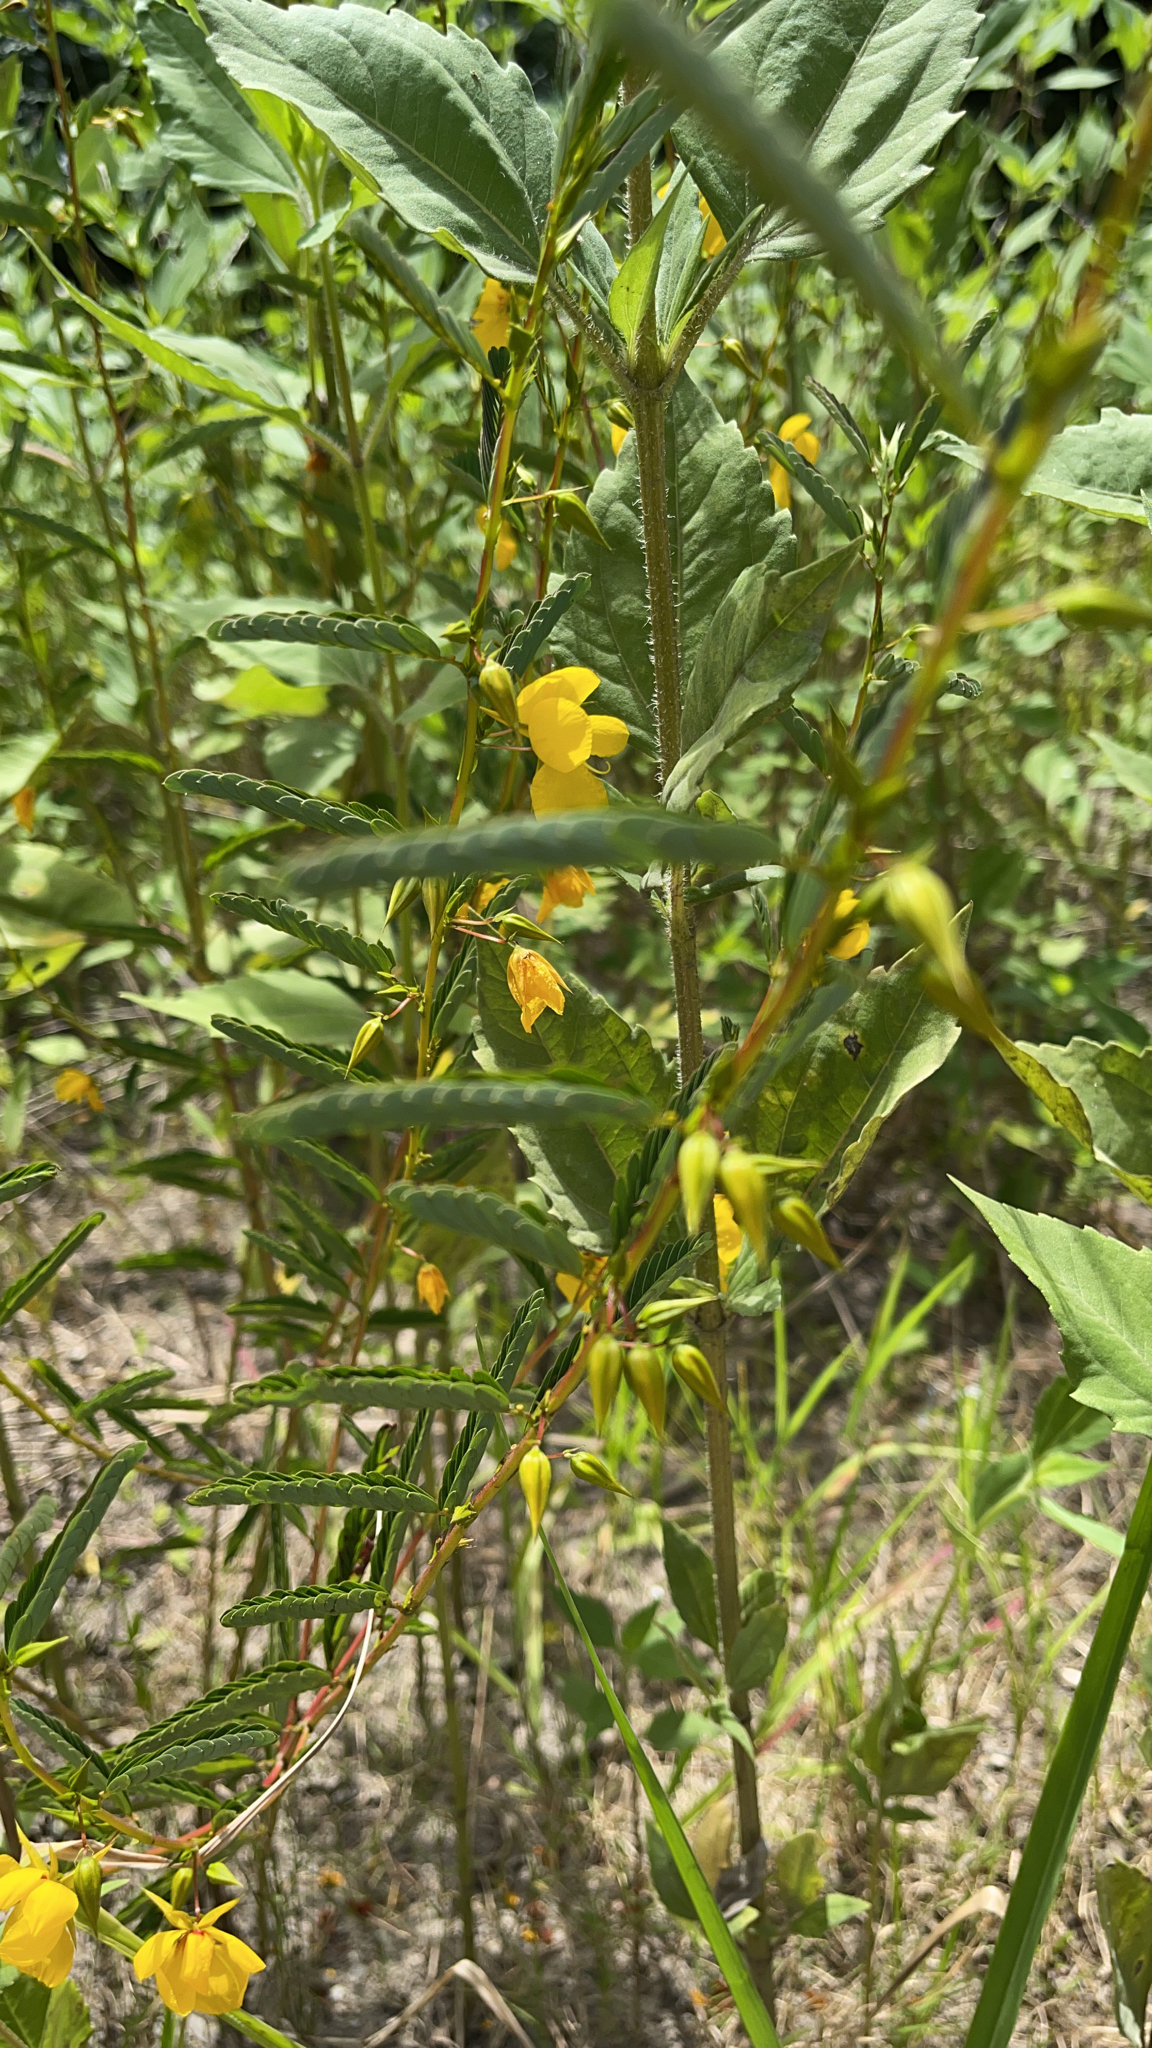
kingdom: Plantae
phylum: Tracheophyta
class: Magnoliopsida
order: Fabales
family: Fabaceae
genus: Chamaecrista
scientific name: Chamaecrista fasciculata
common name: Golden cassia
